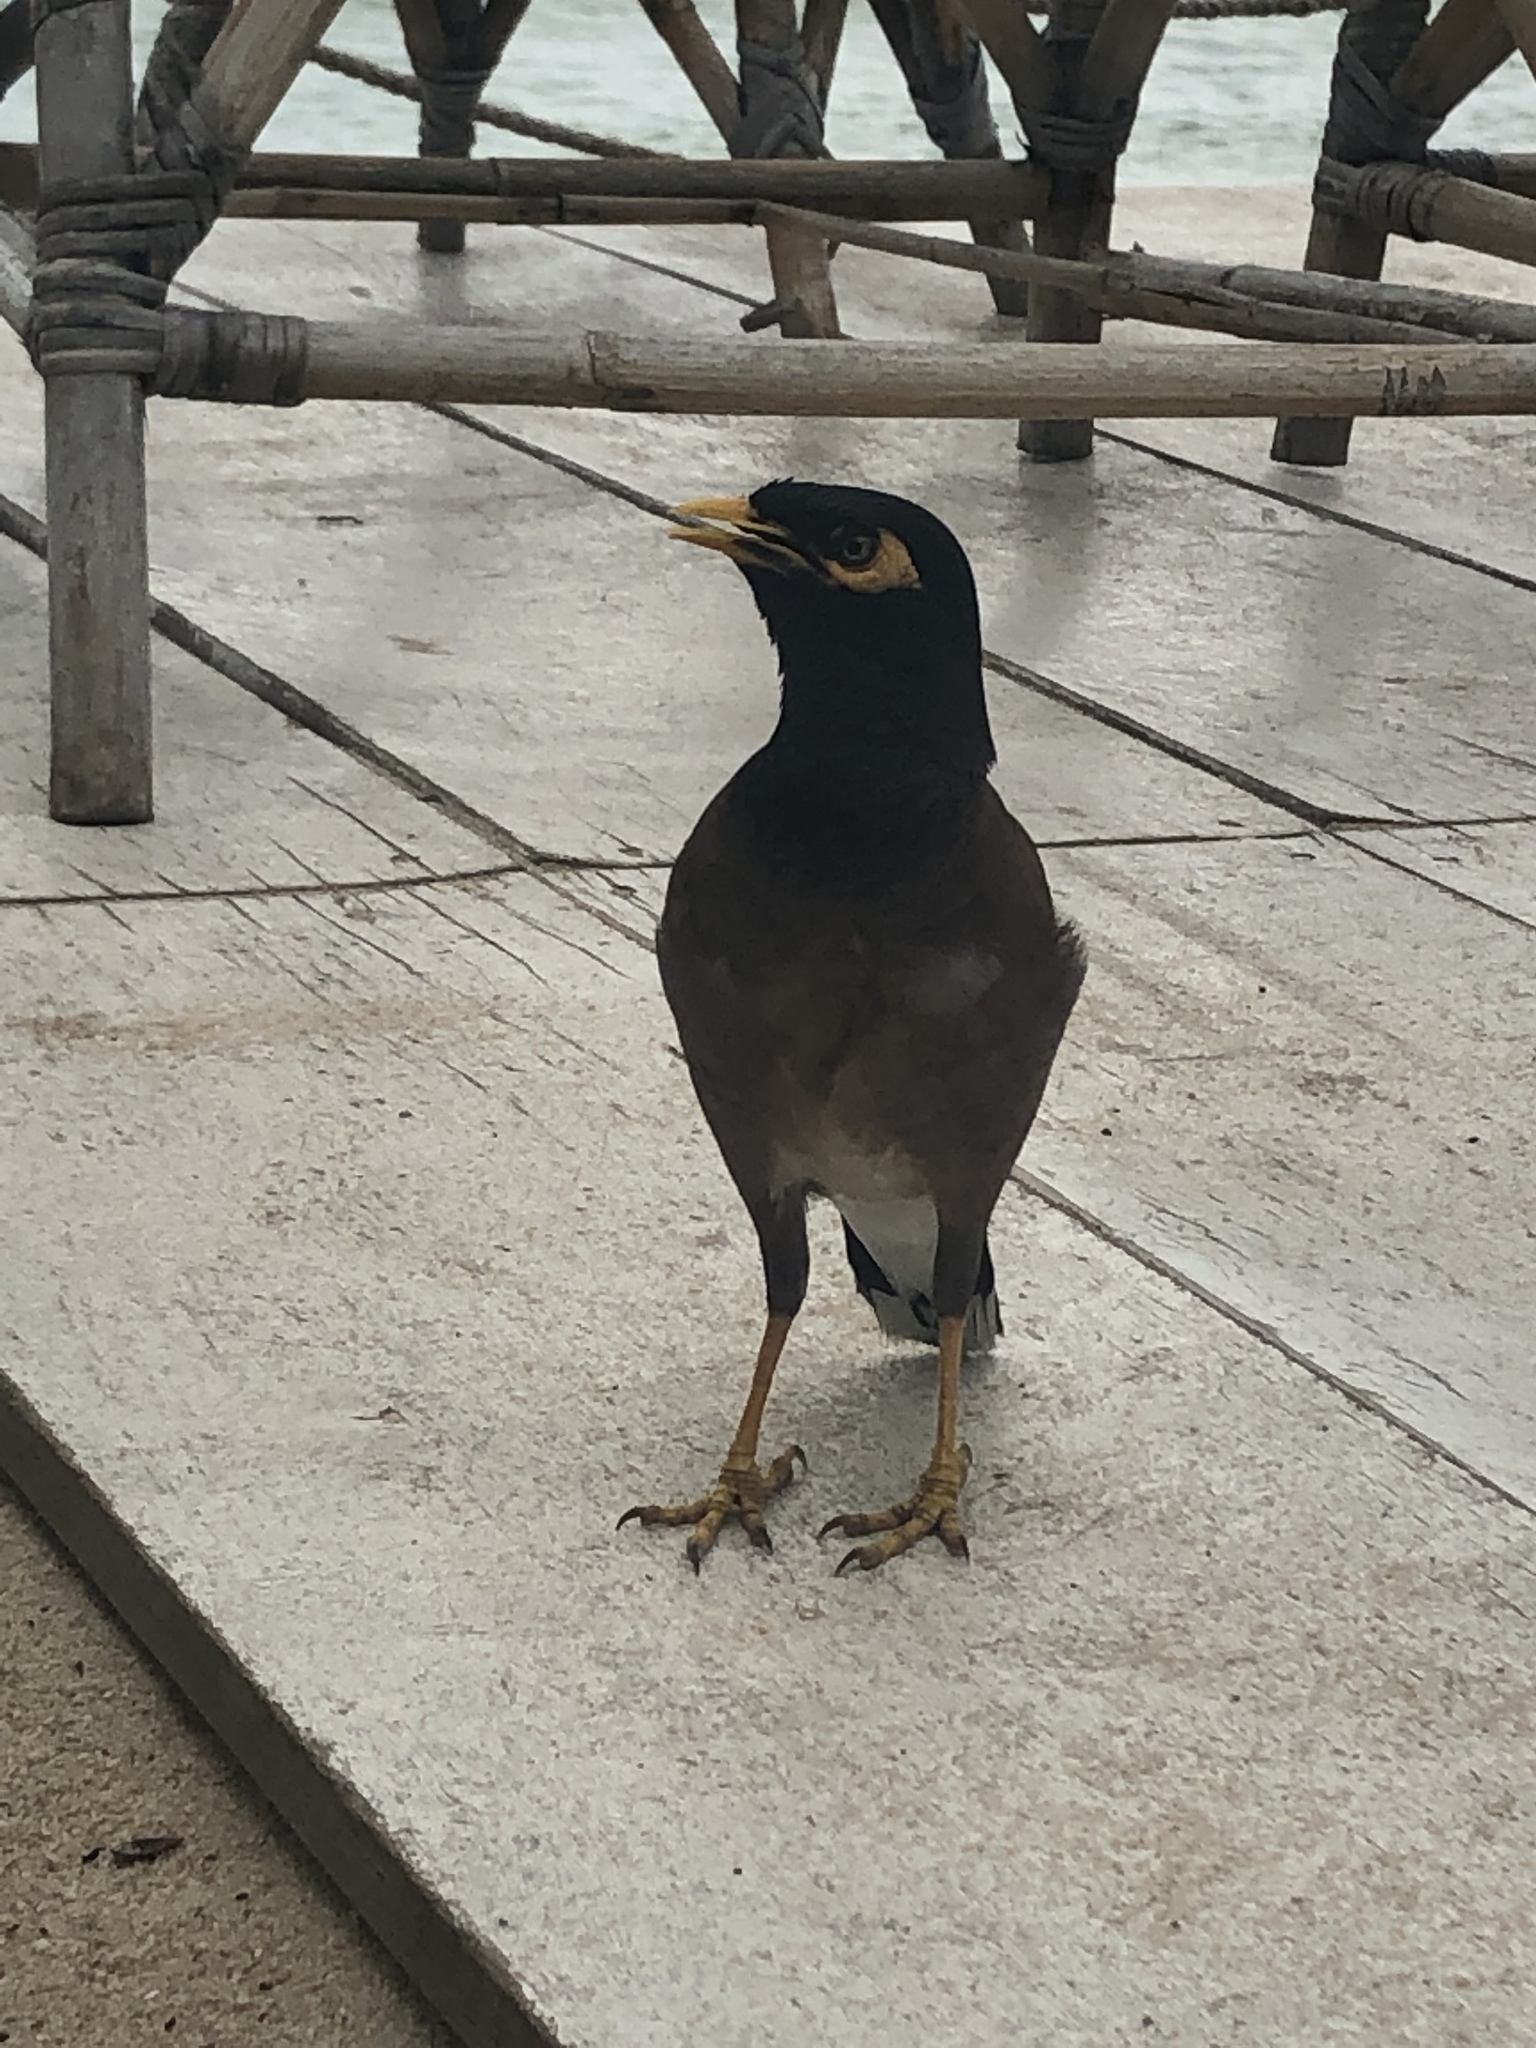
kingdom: Animalia
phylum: Chordata
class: Aves
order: Passeriformes
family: Sturnidae
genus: Acridotheres
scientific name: Acridotheres tristis
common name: Common myna
